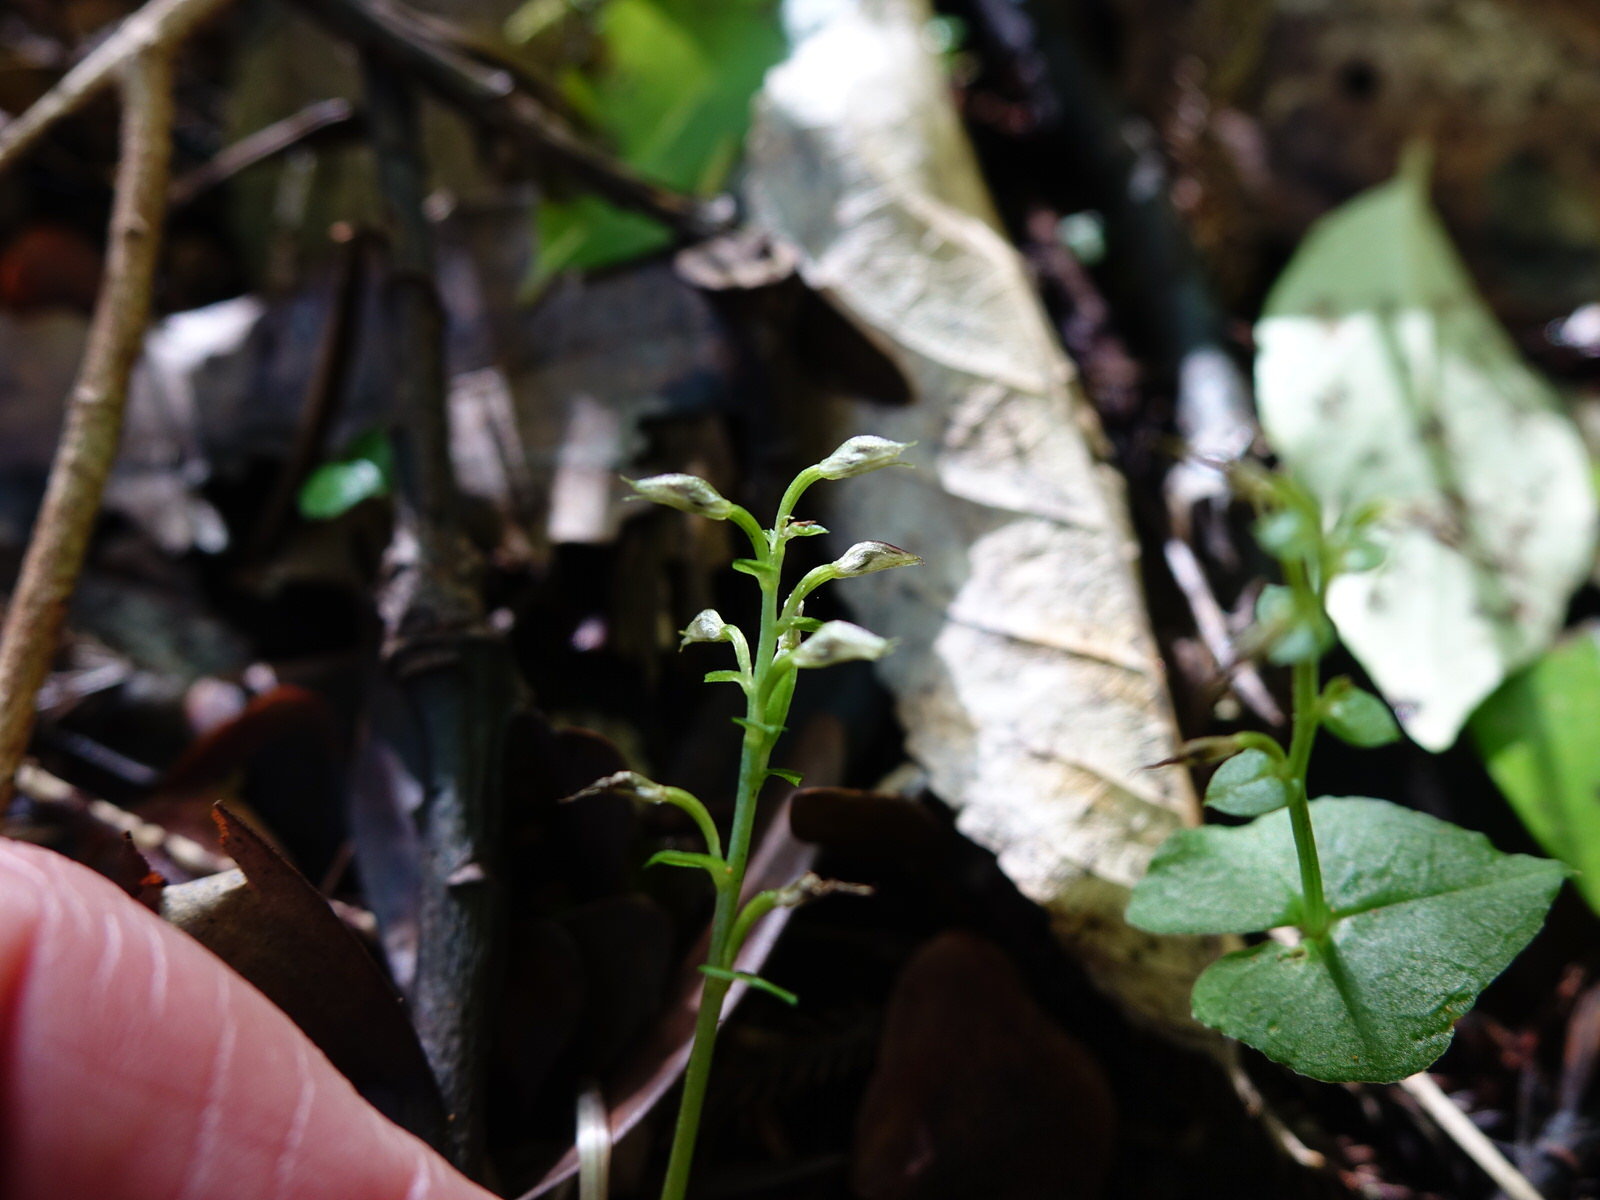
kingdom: Plantae
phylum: Tracheophyta
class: Liliopsida
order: Asparagales
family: Orchidaceae
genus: Acianthus
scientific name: Acianthus sinclairii
